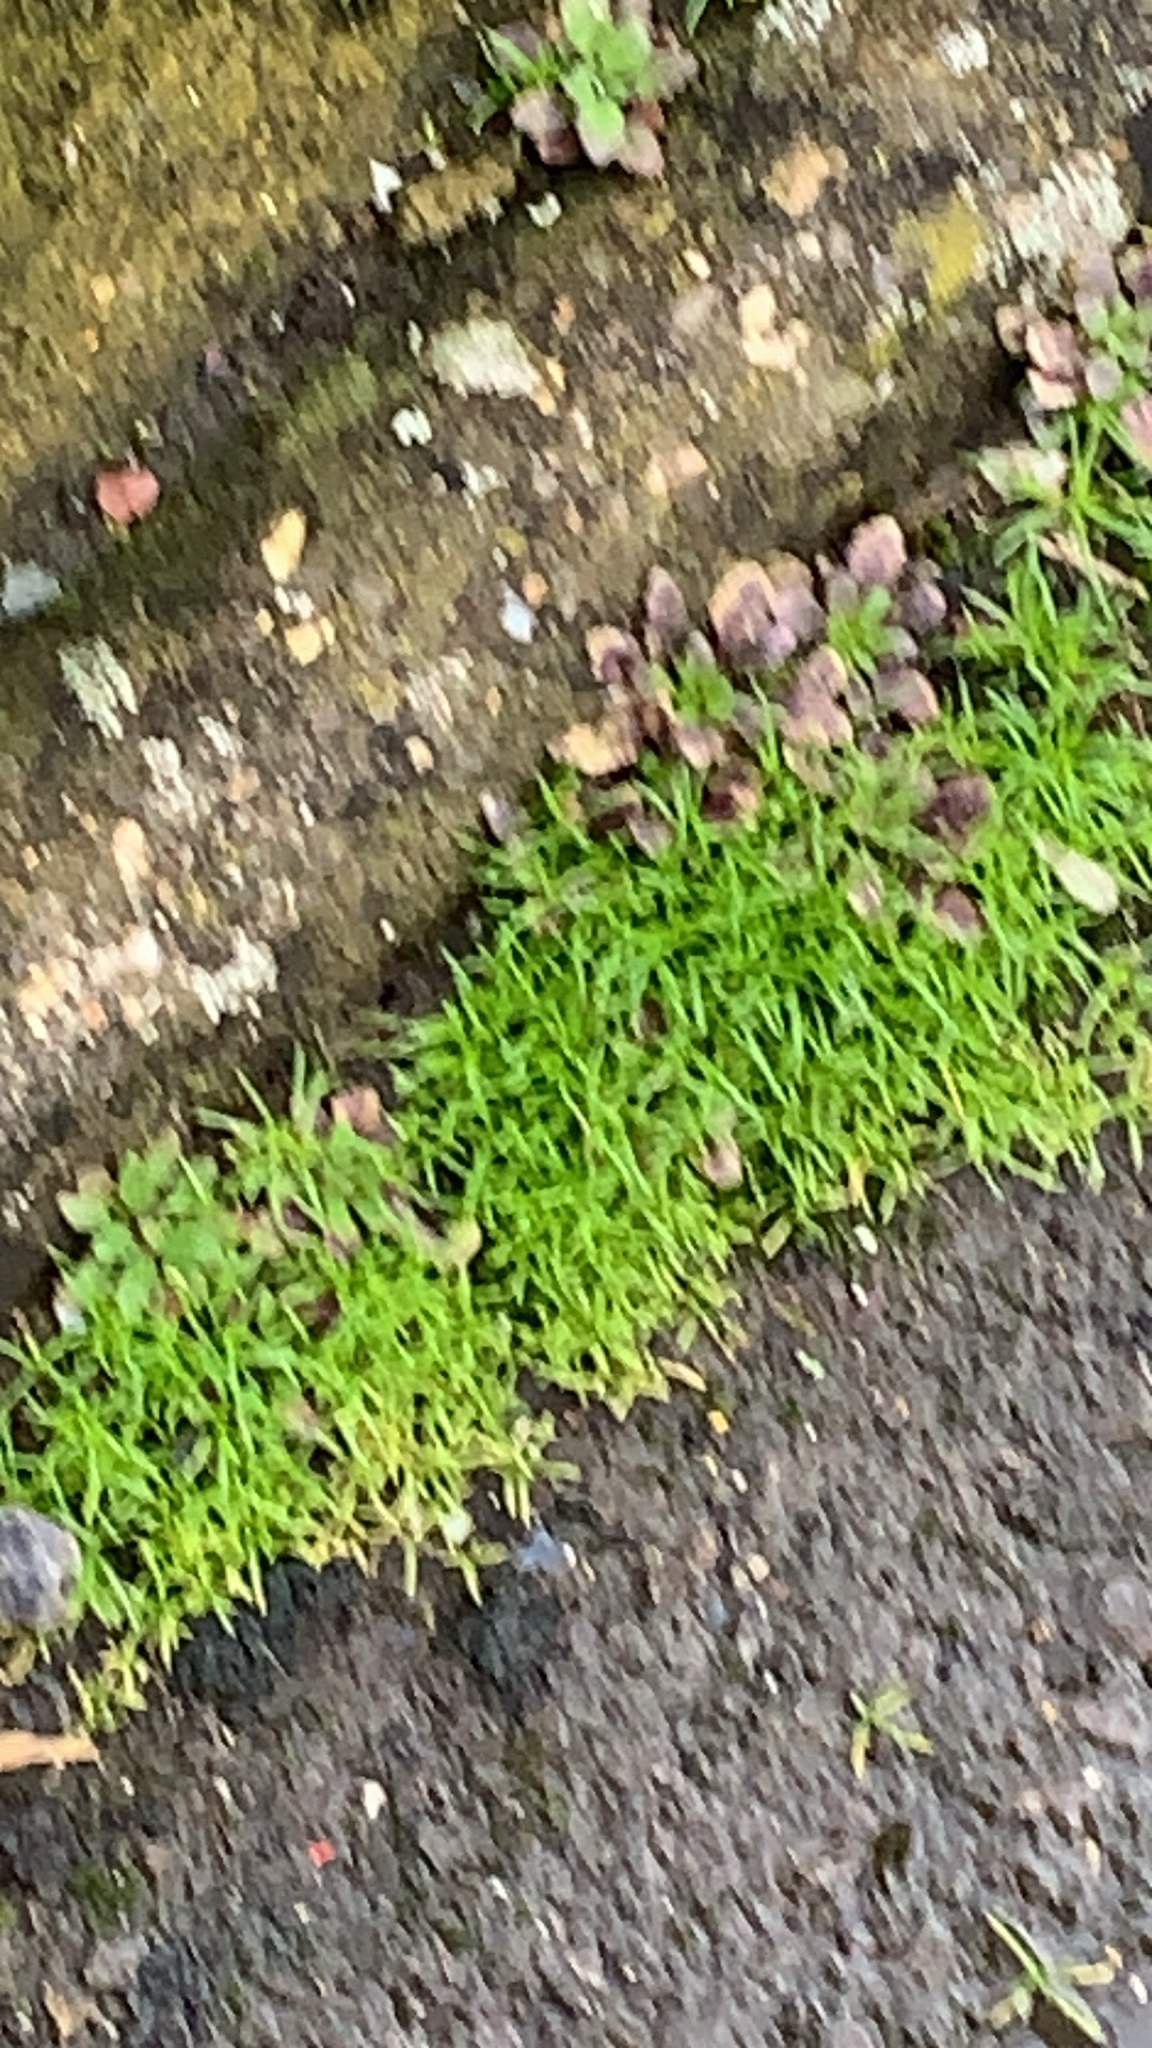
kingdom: Plantae
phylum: Tracheophyta
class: Magnoliopsida
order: Caryophyllales
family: Caryophyllaceae
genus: Sagina
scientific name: Sagina procumbens
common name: Procumbent pearlwort
